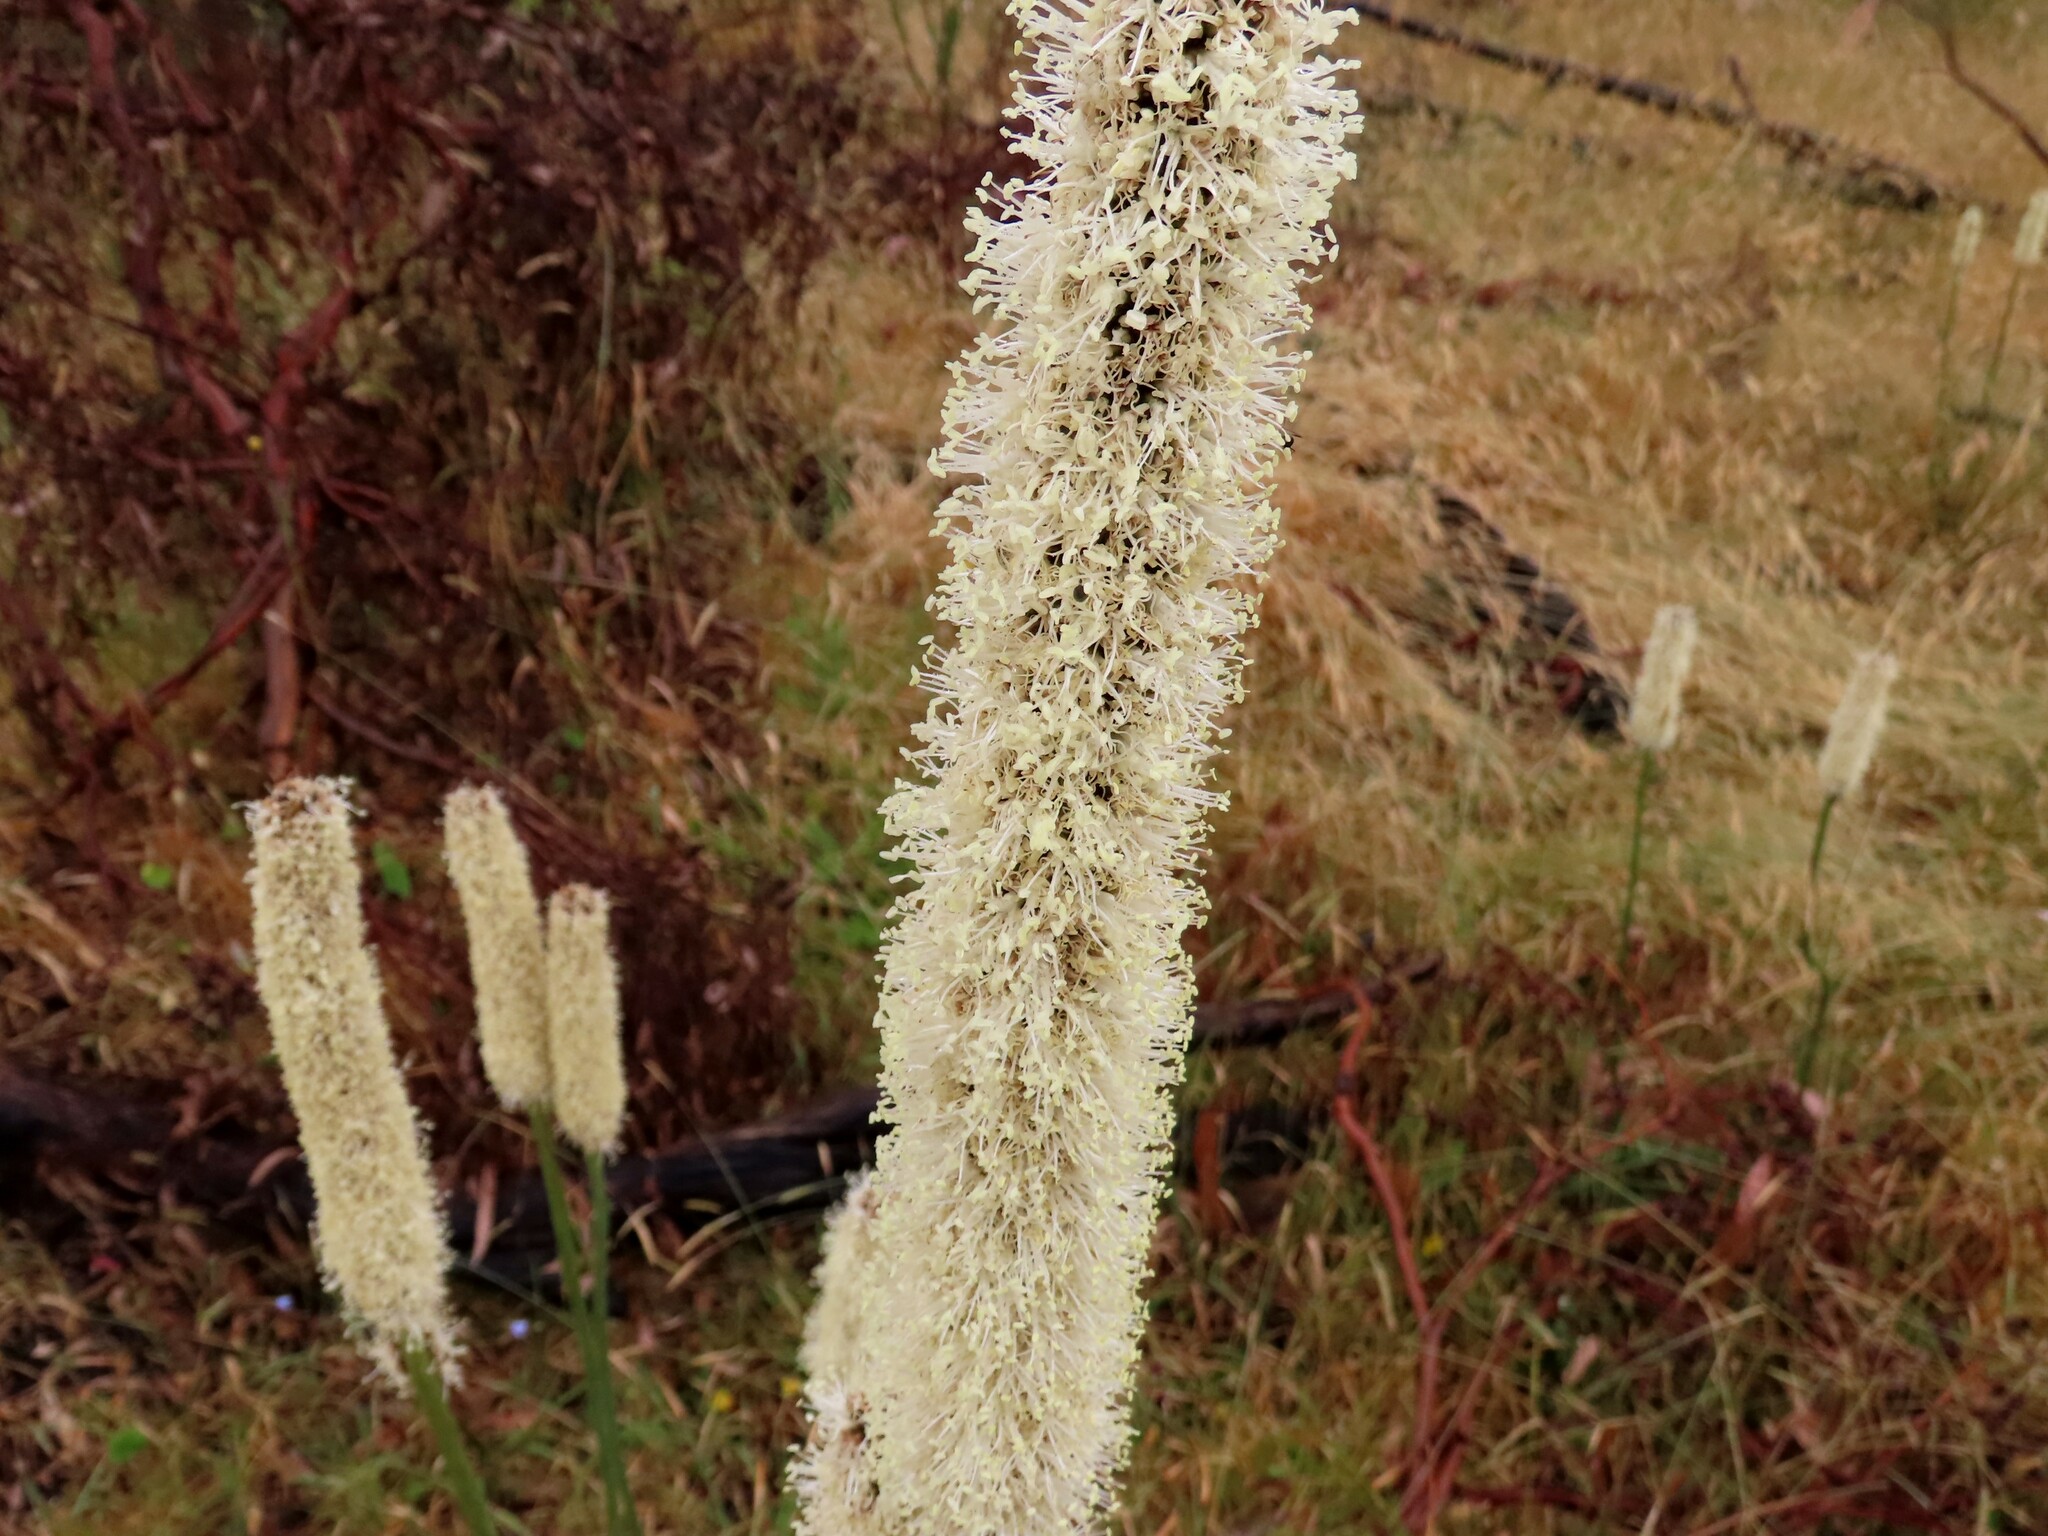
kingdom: Plantae
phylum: Tracheophyta
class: Liliopsida
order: Asparagales
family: Asphodelaceae
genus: Xanthorrhoea
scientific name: Xanthorrhoea minor
